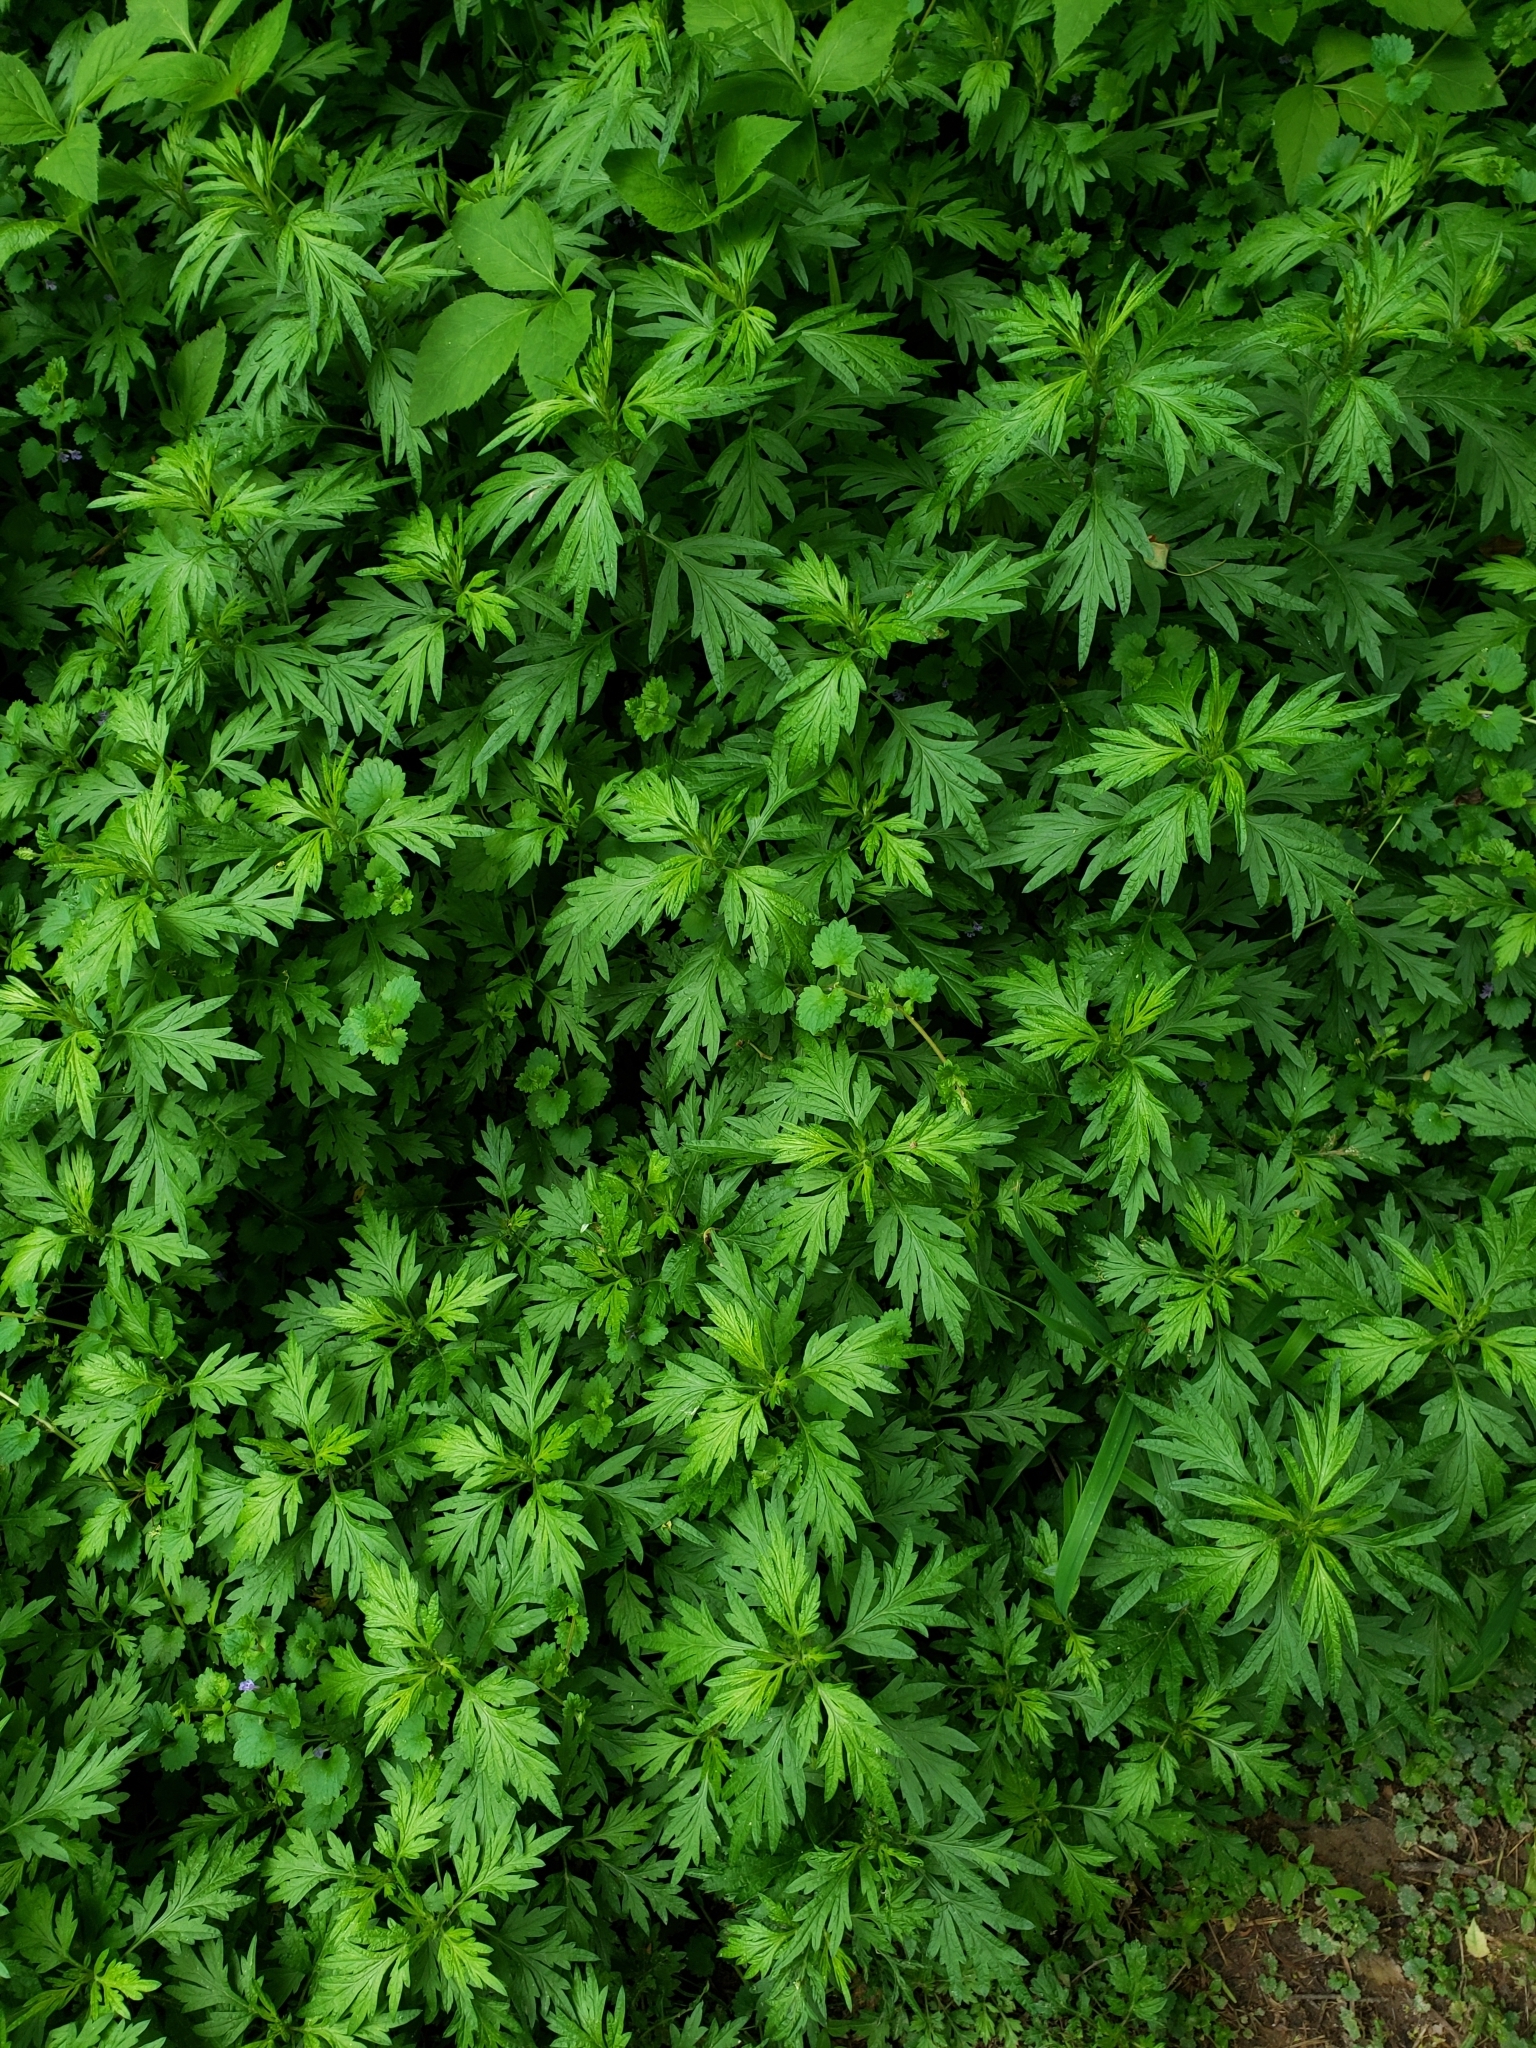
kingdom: Plantae
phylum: Tracheophyta
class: Magnoliopsida
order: Asterales
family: Asteraceae
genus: Artemisia
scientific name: Artemisia vulgaris
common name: Mugwort
